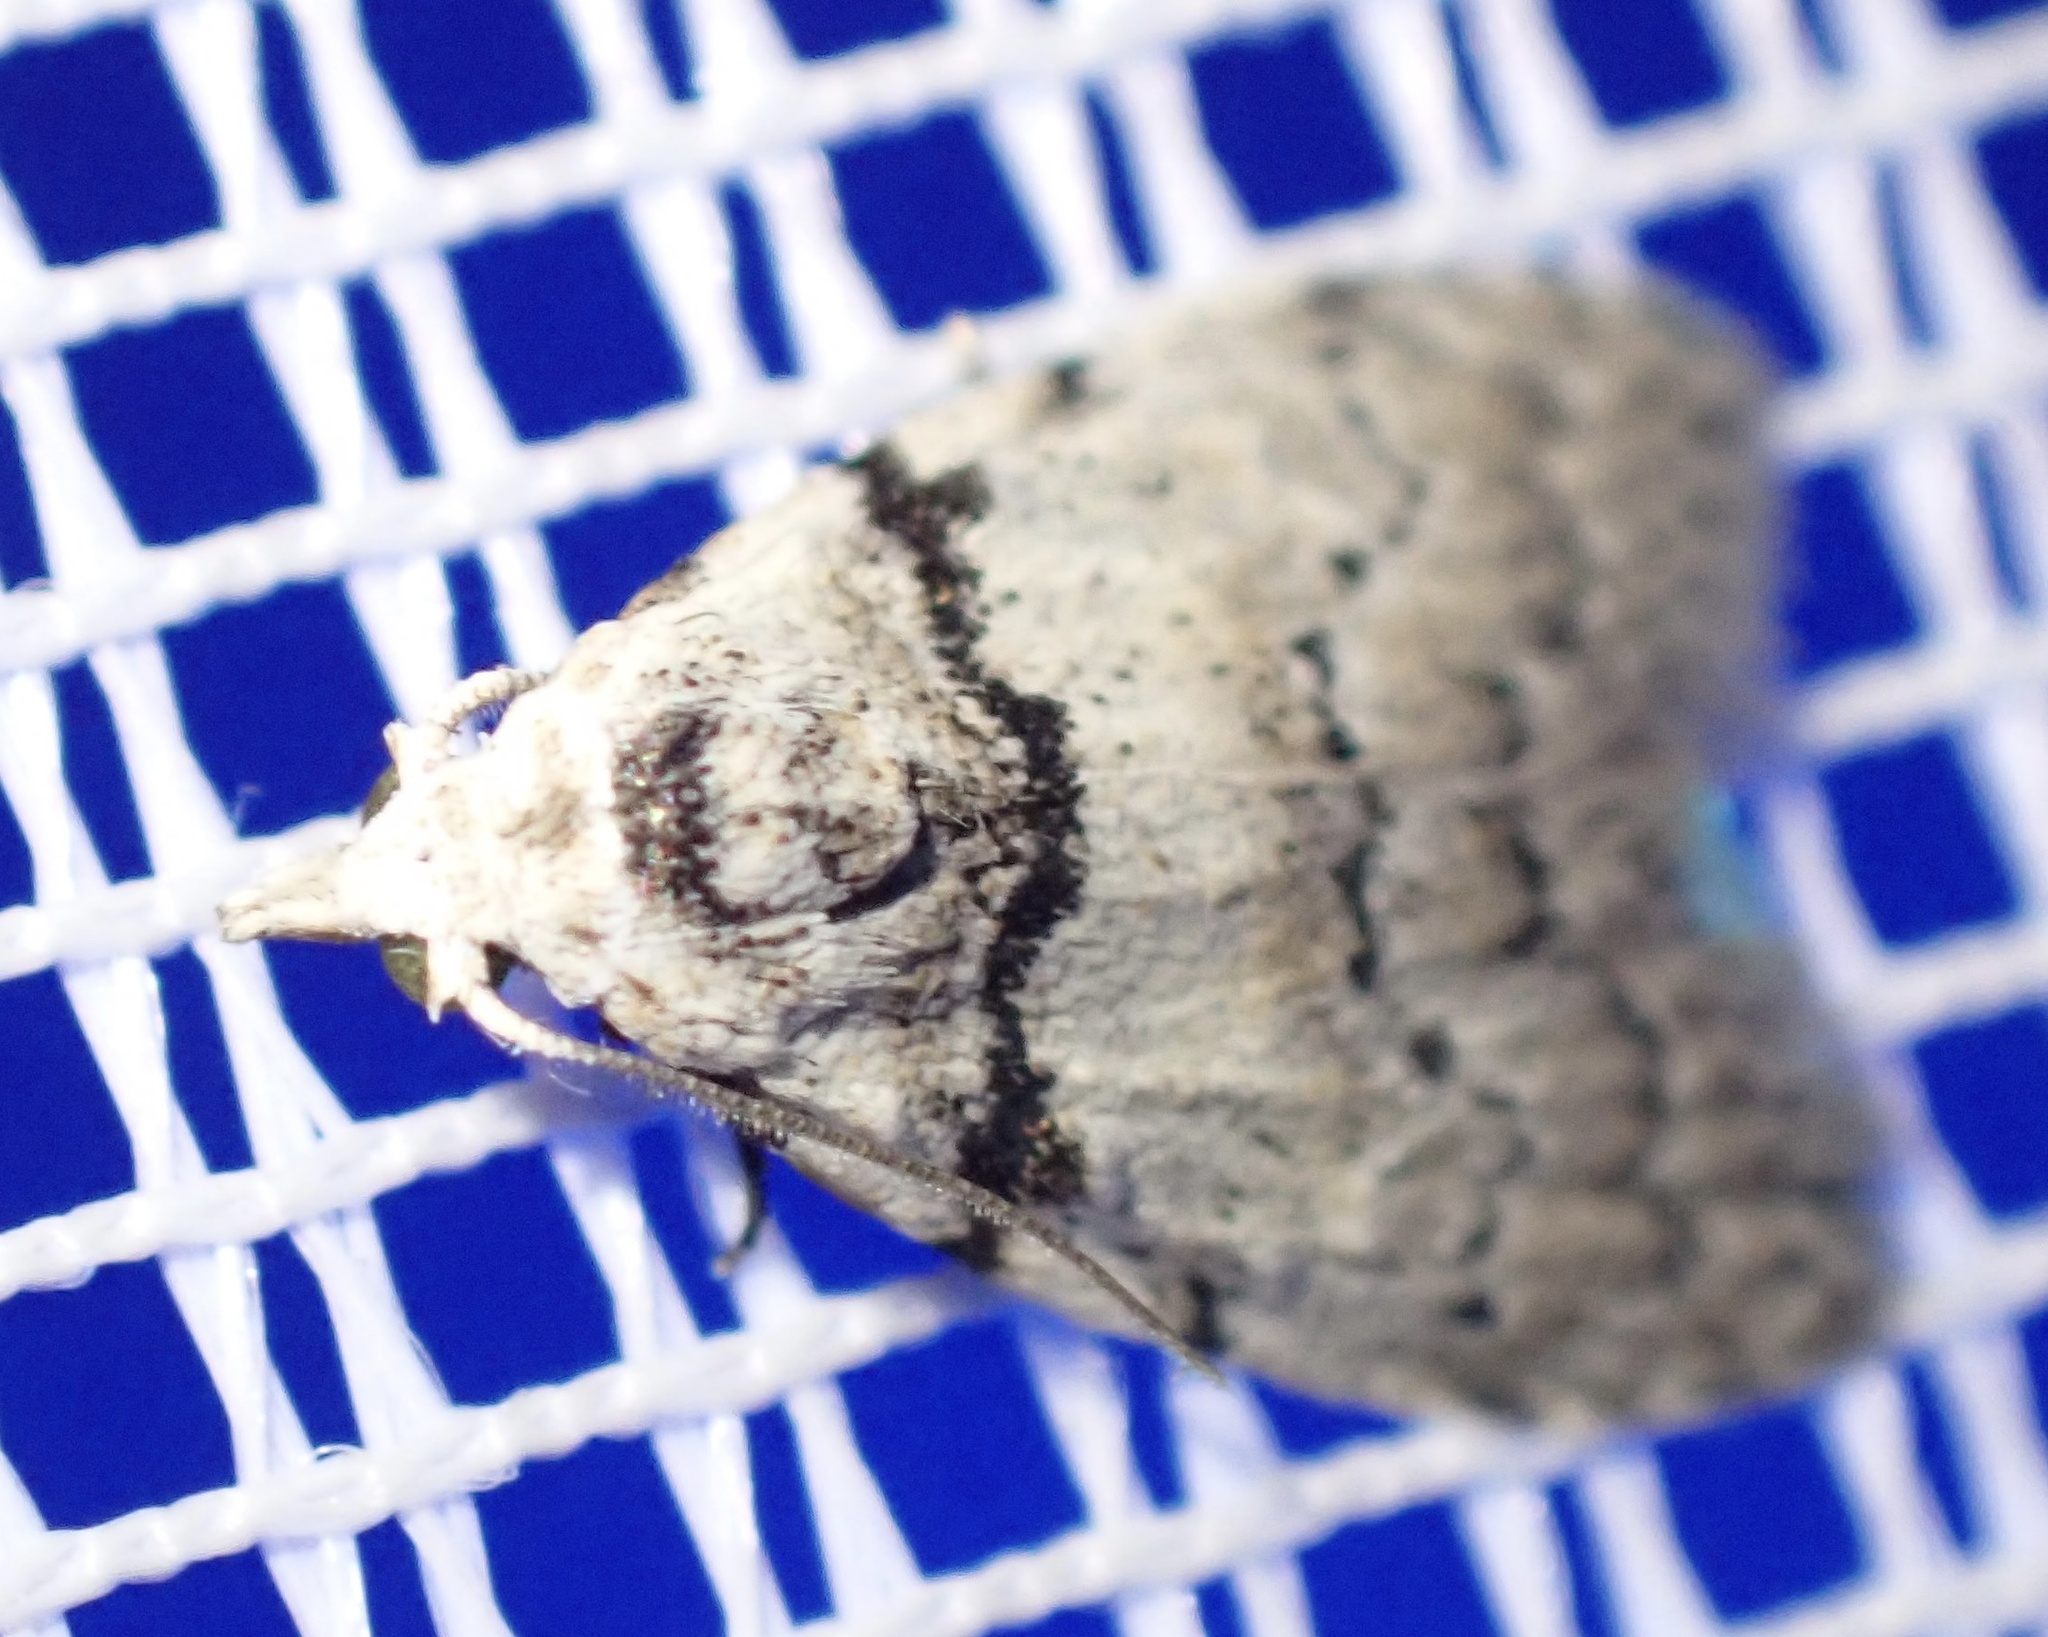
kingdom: Animalia
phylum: Arthropoda
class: Insecta
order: Lepidoptera
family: Nolidae
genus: Nola
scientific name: Nola pygmaeodes
